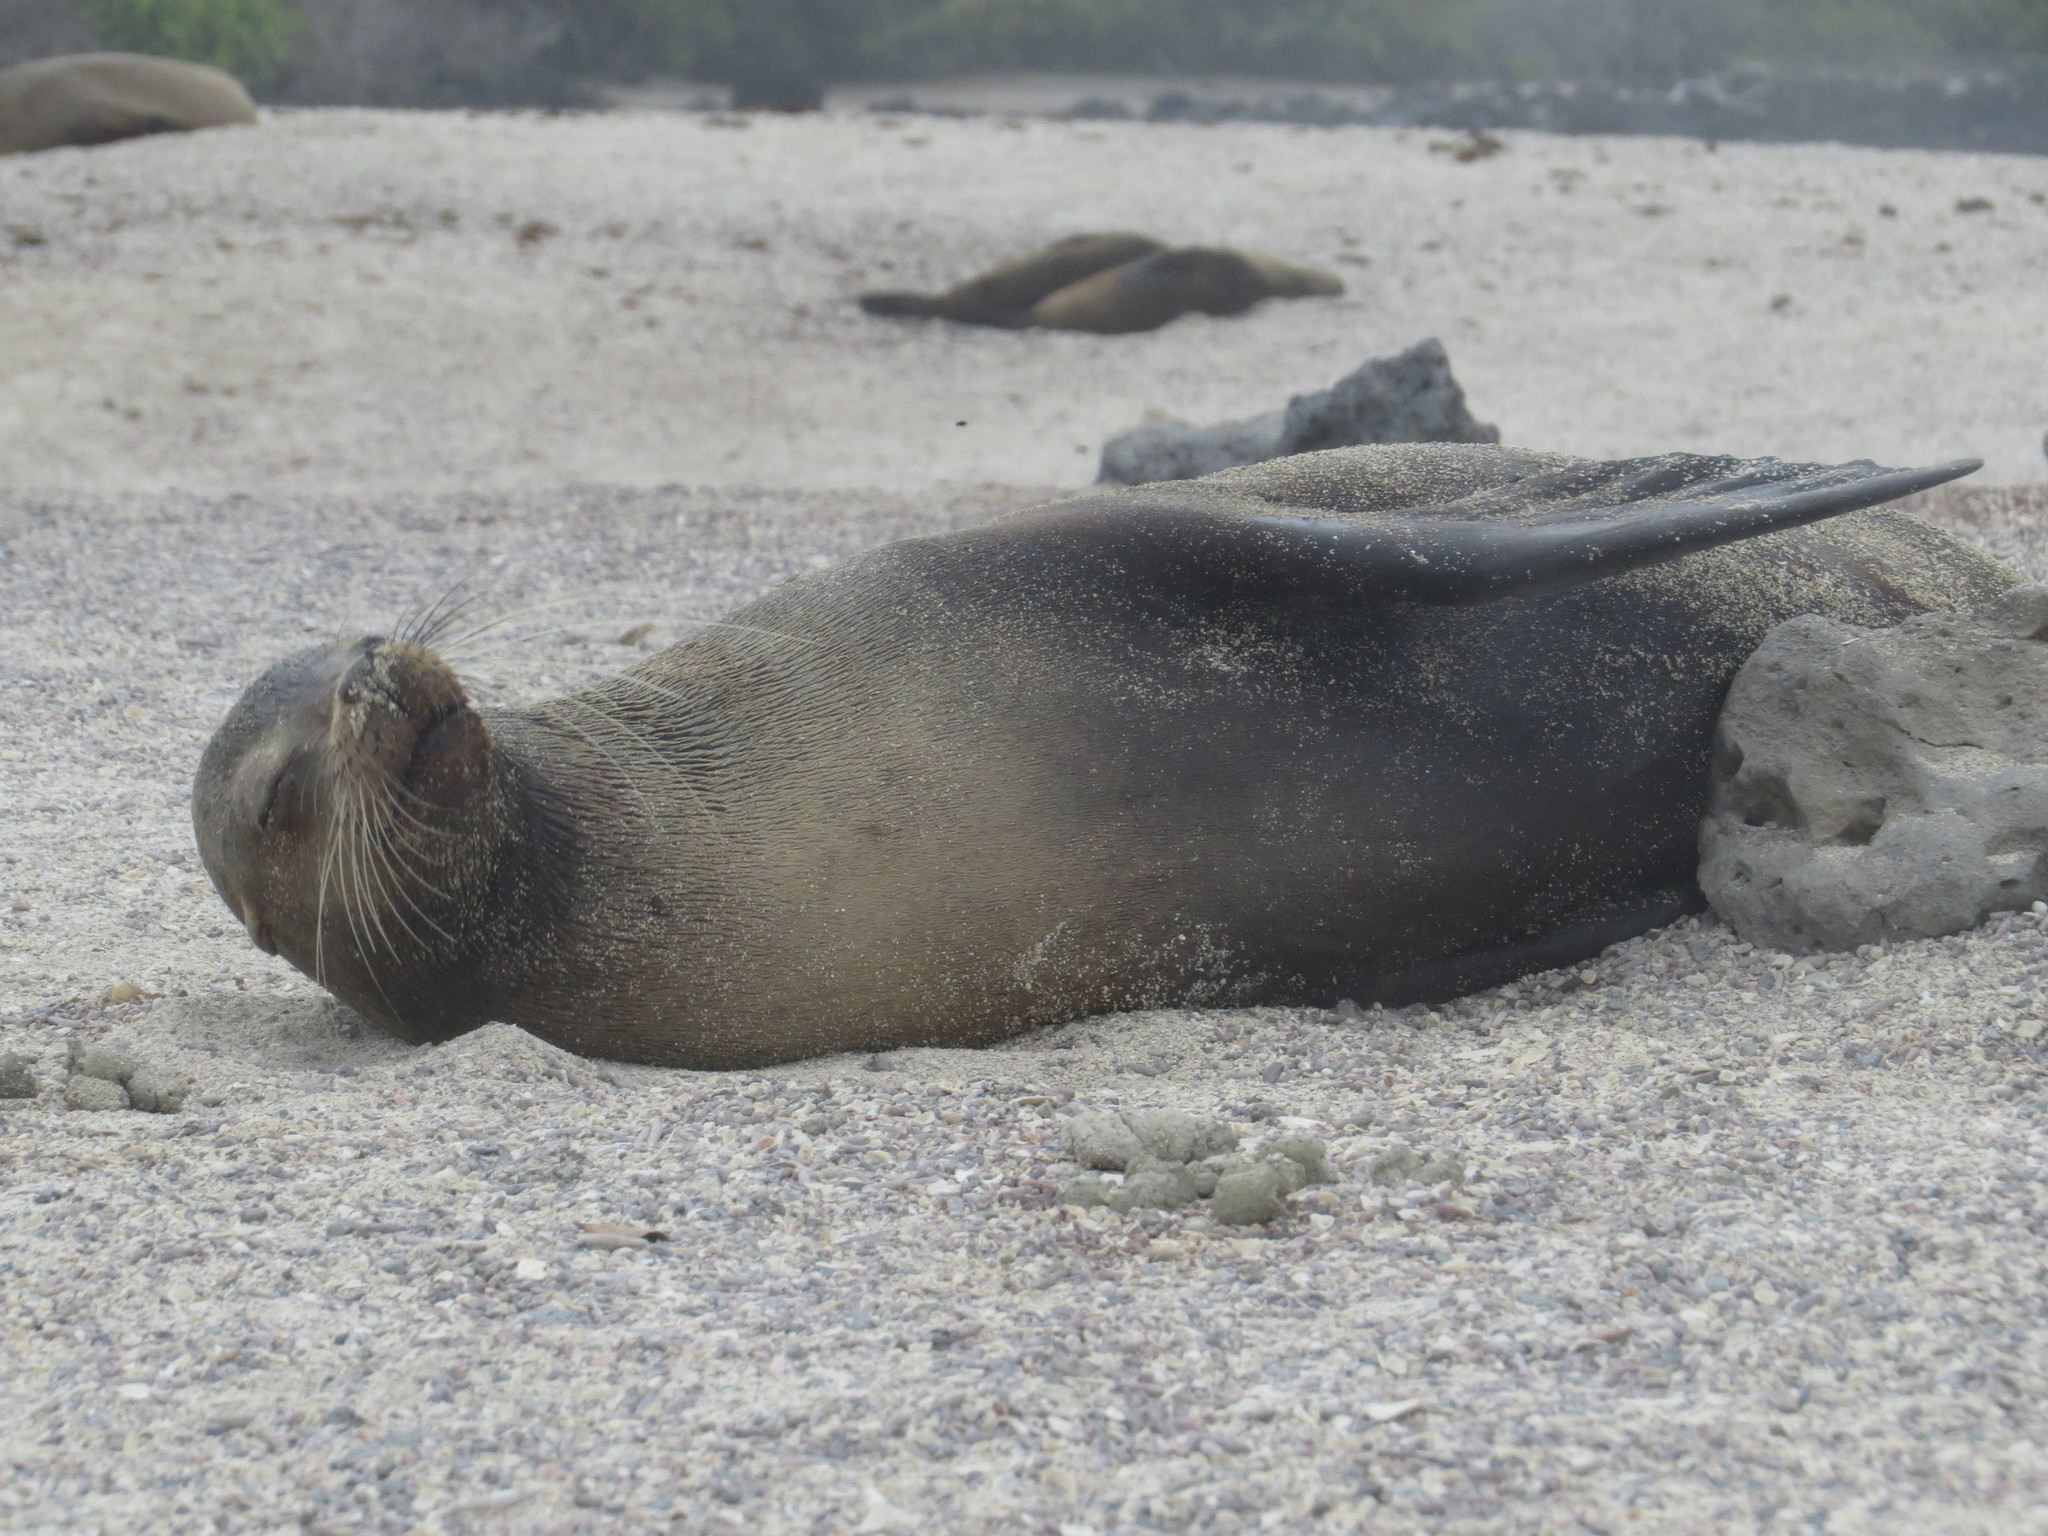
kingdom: Animalia
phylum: Chordata
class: Mammalia
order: Carnivora
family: Otariidae
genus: Zalophus
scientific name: Zalophus wollebaeki
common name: Galapagos sea lion
